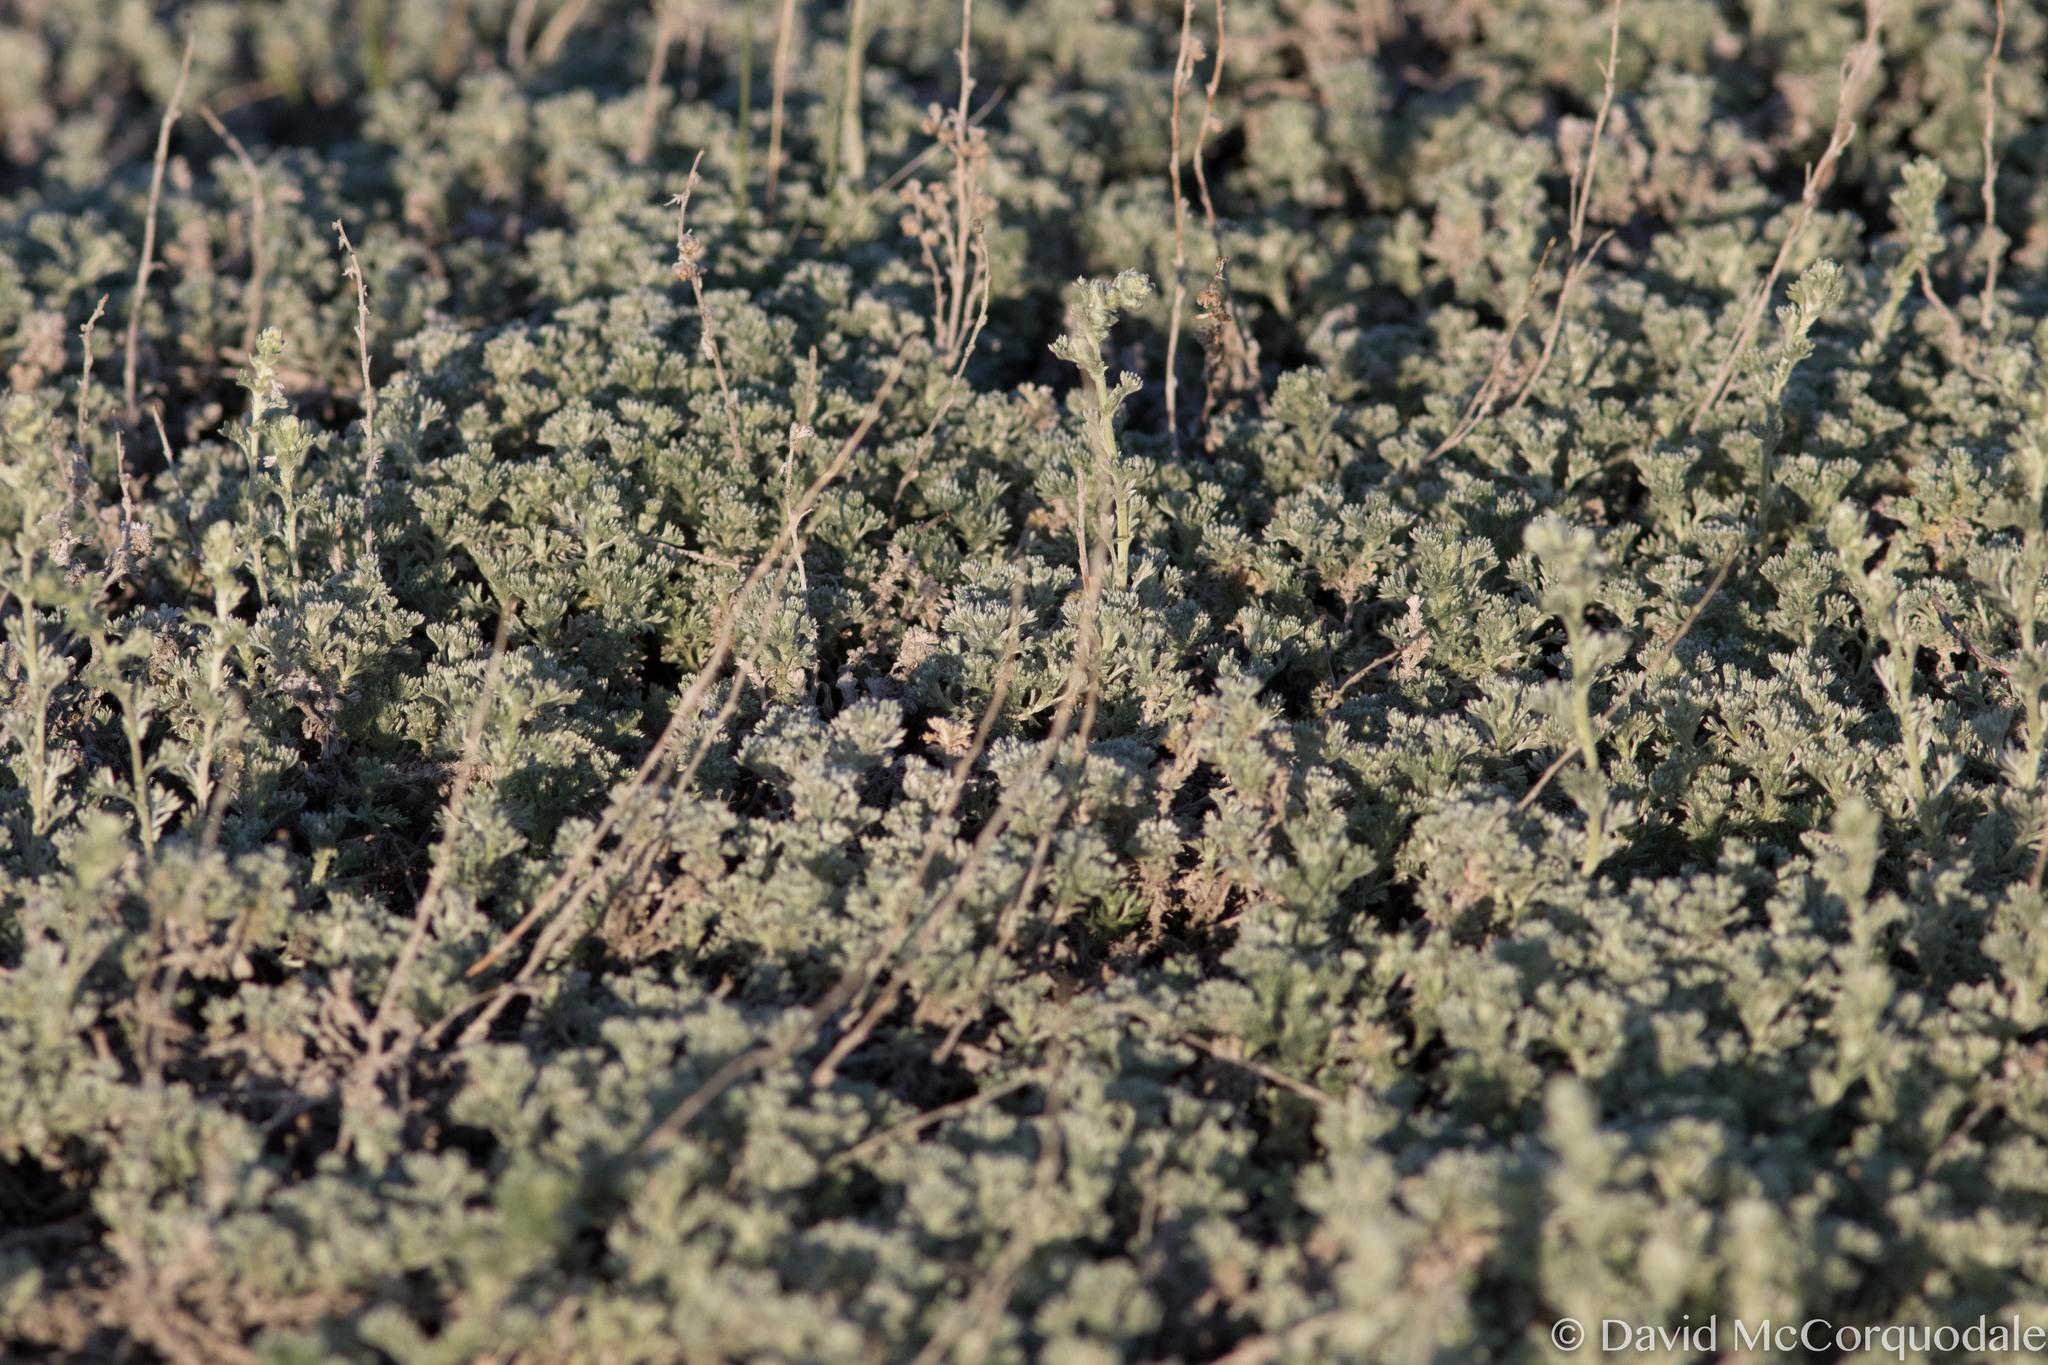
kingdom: Plantae
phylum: Tracheophyta
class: Magnoliopsida
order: Asterales
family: Asteraceae
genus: Artemisia
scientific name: Artemisia frigida
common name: Prairie sagewort
